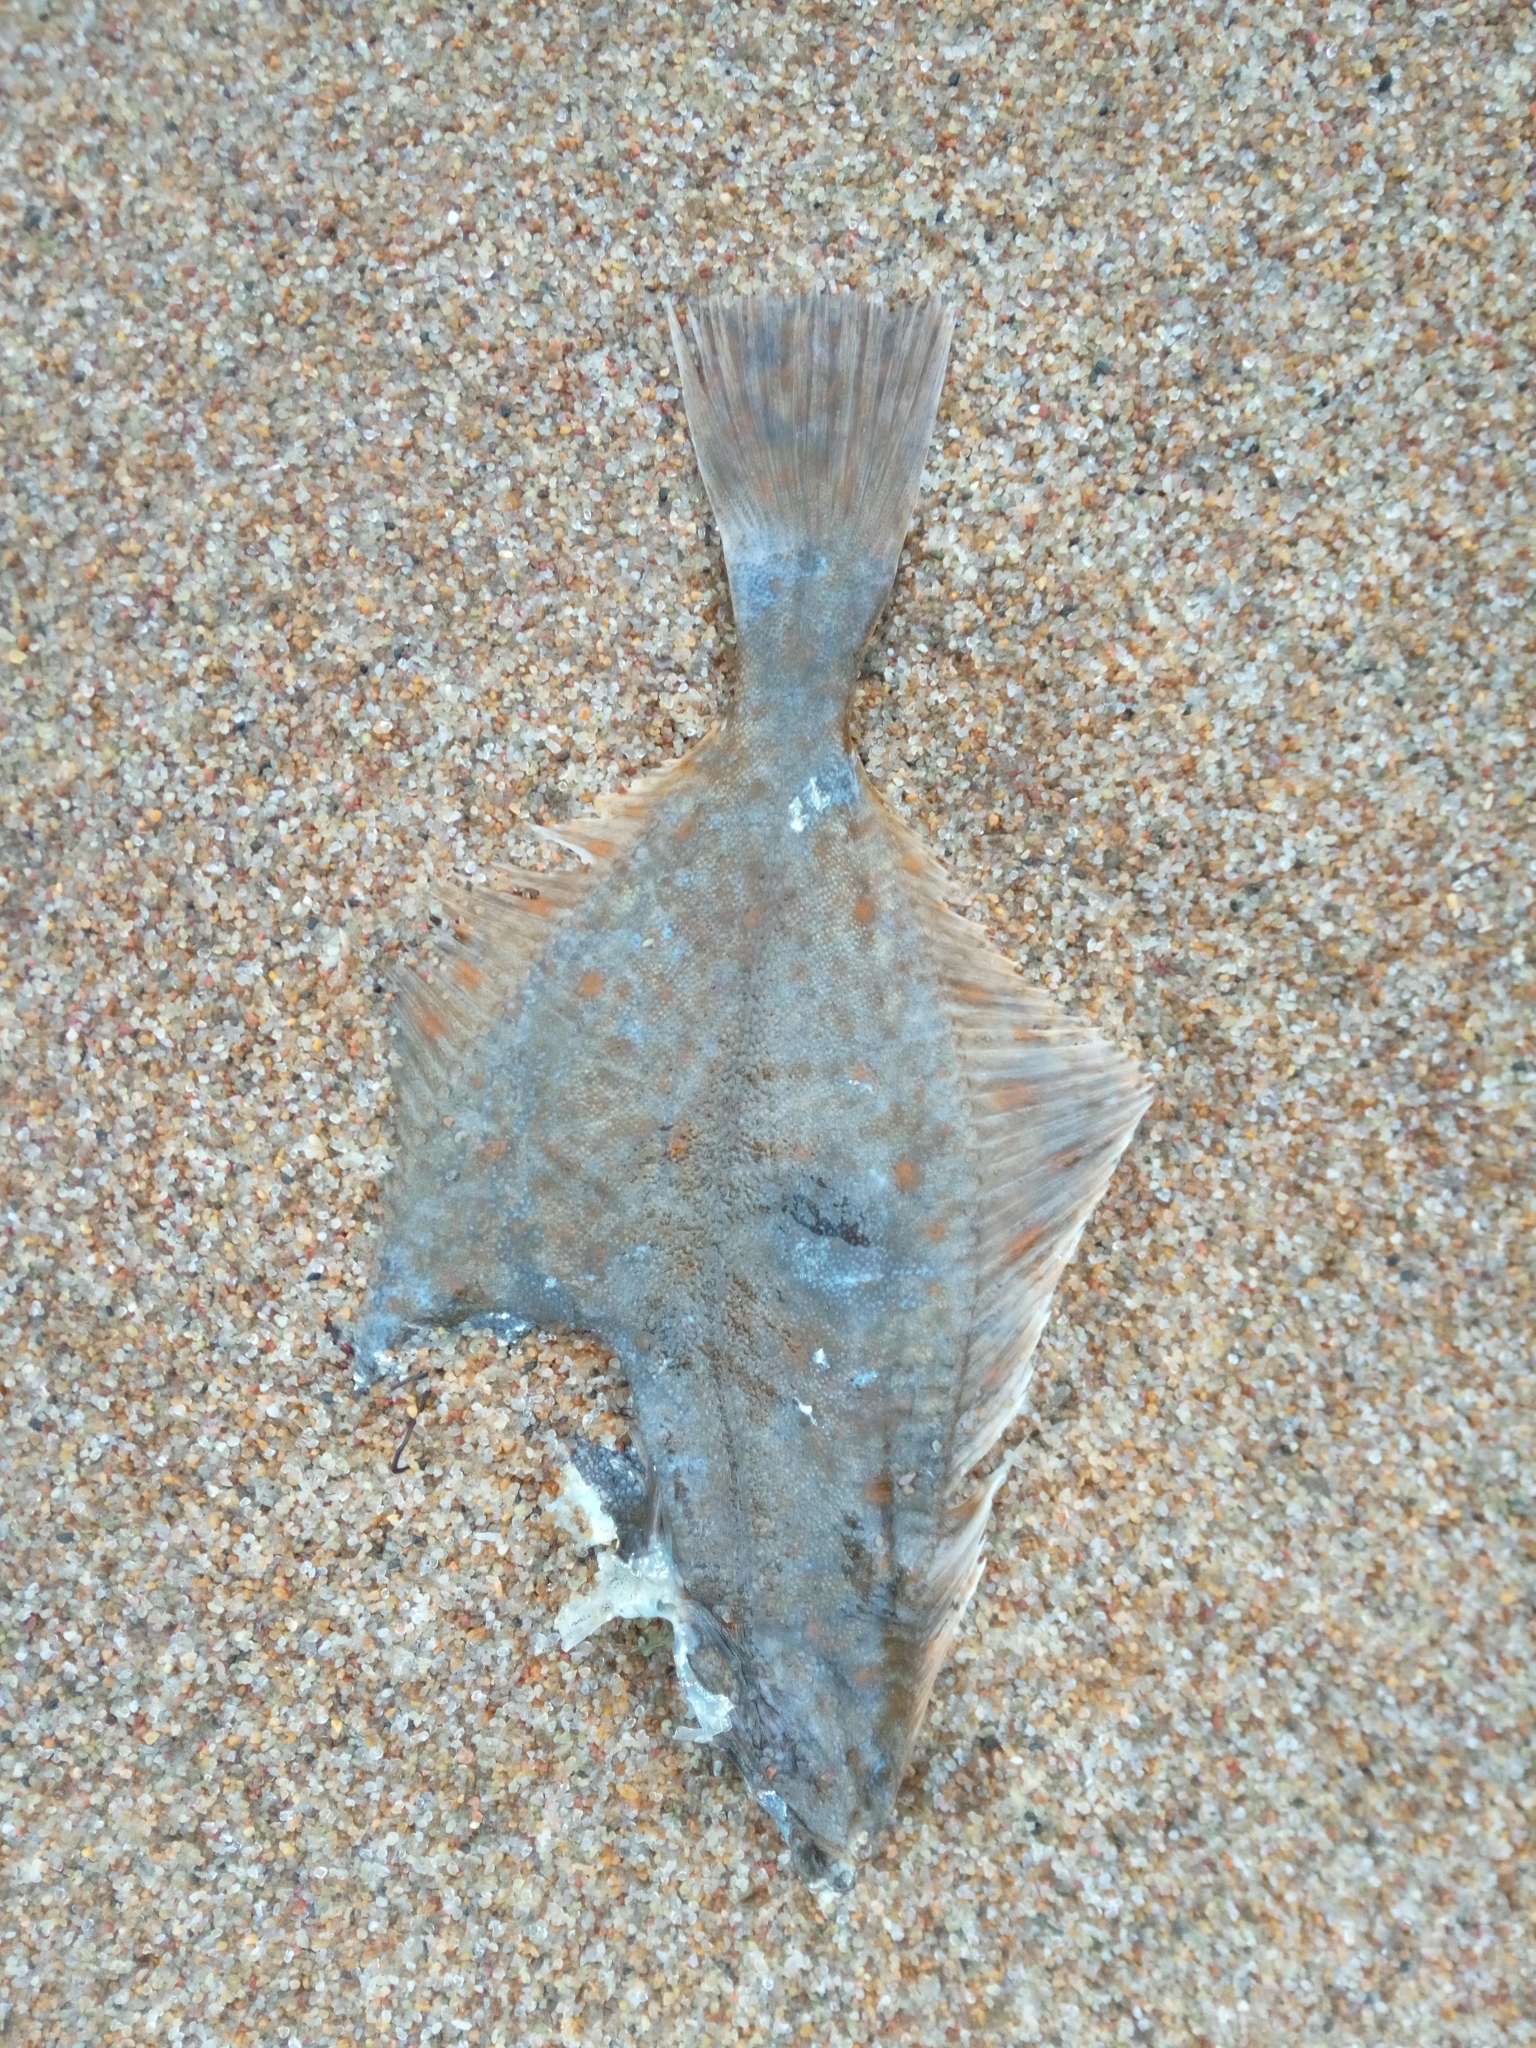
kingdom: Animalia
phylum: Chordata
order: Pleuronectiformes
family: Pleuronectidae
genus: Platichthys
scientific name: Platichthys
